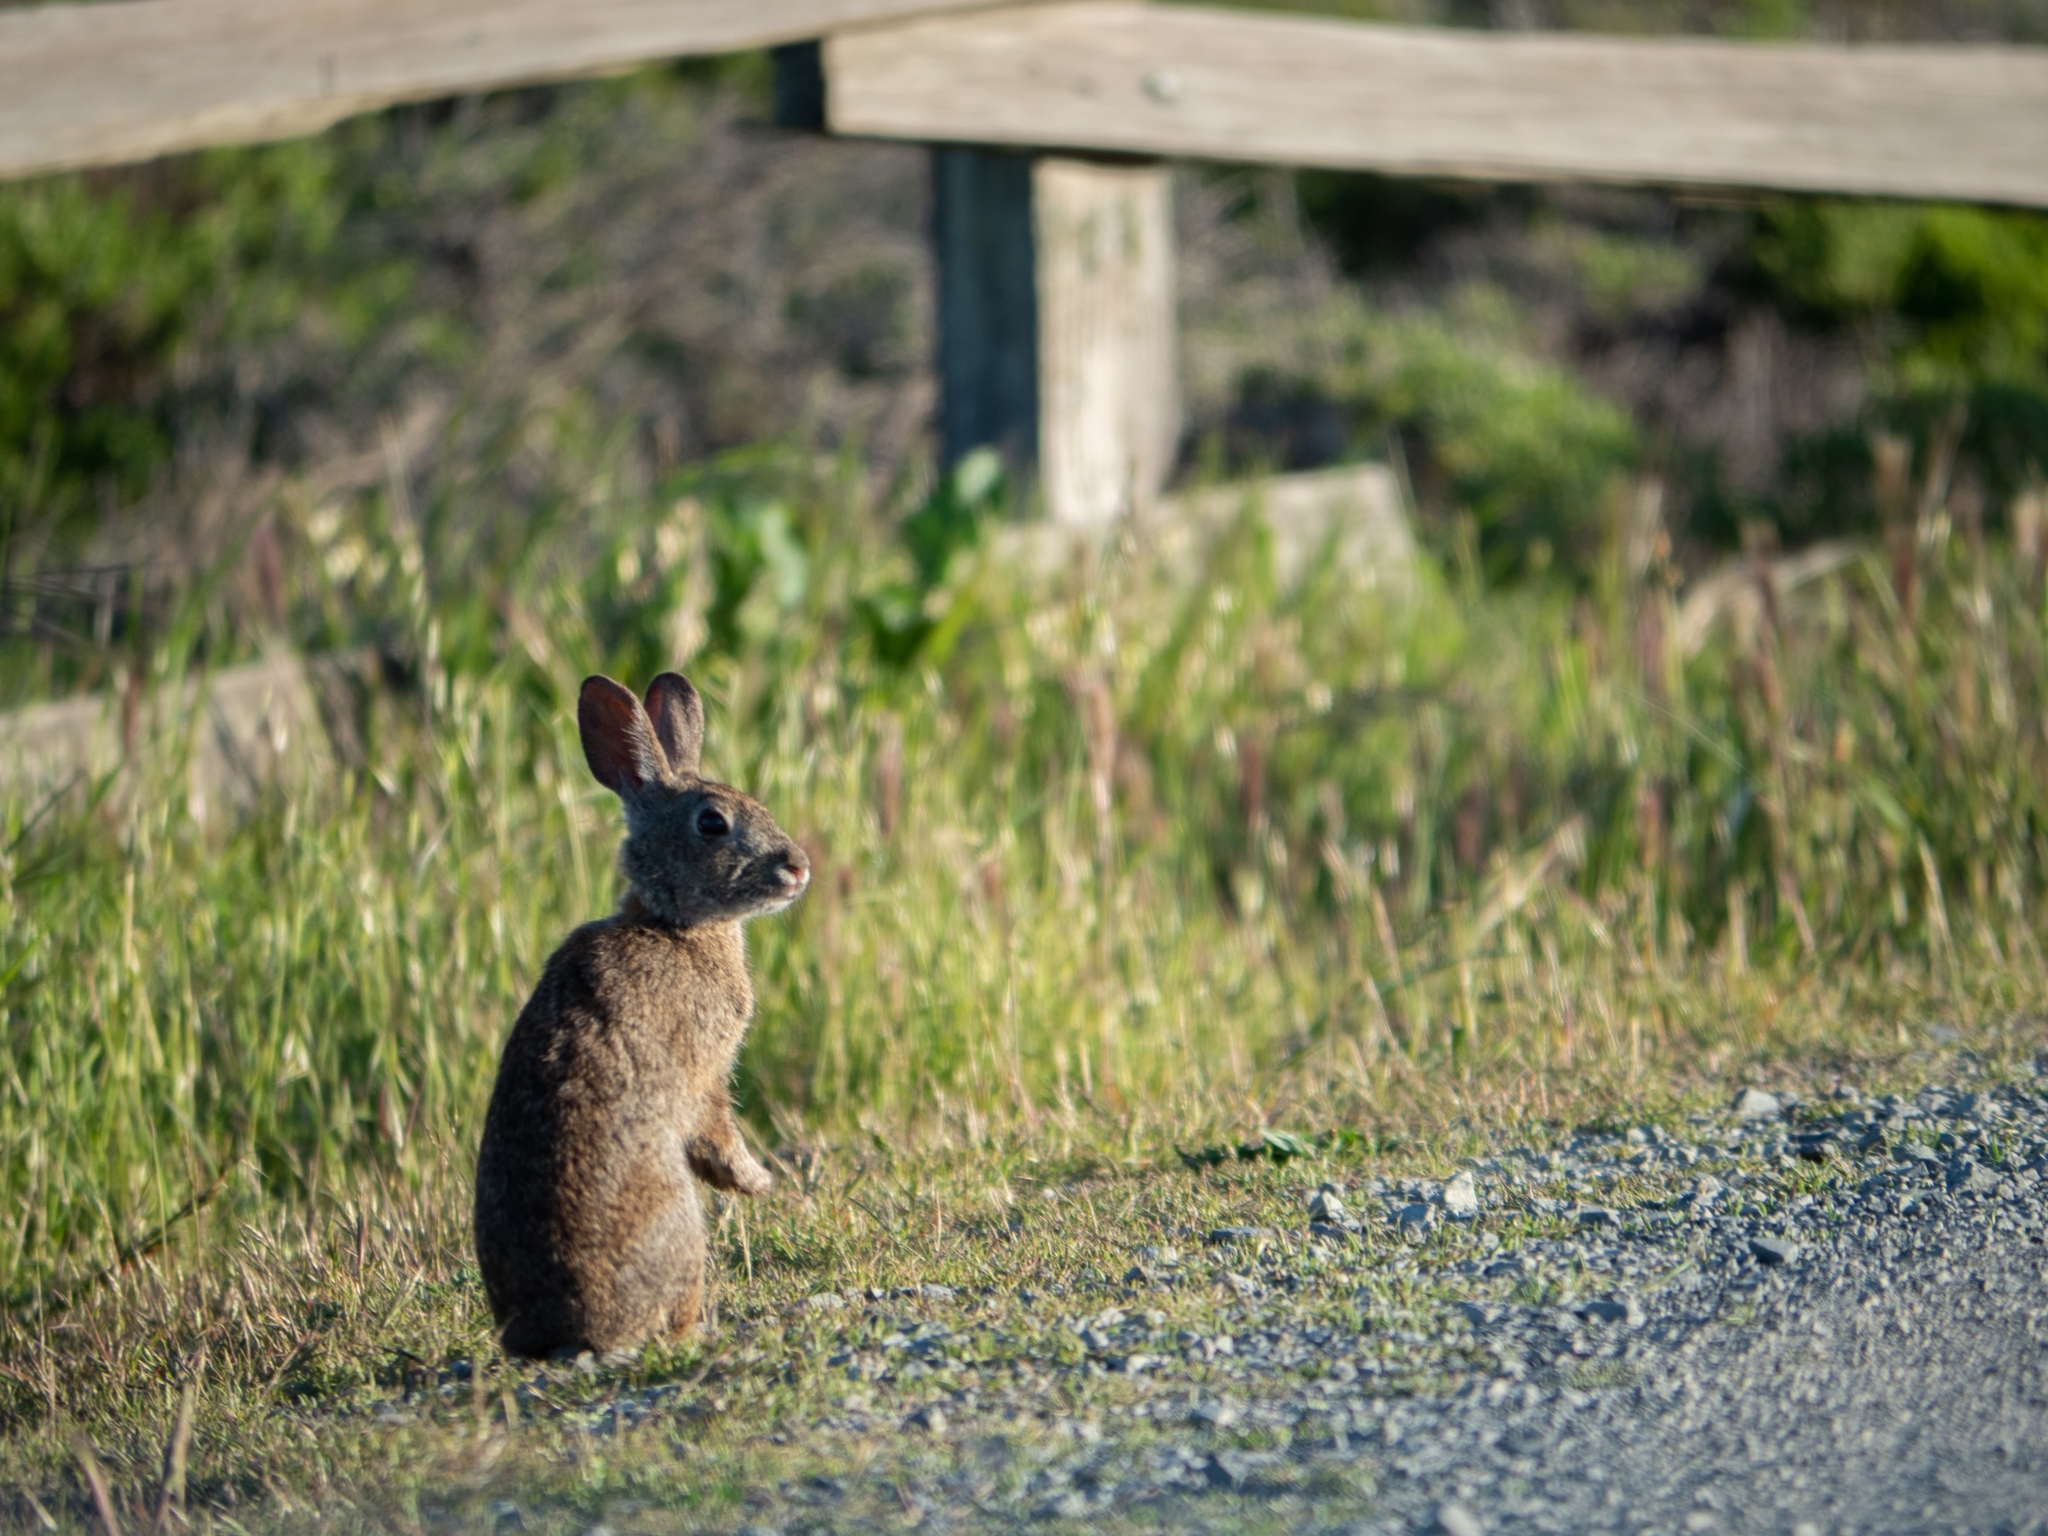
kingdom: Animalia
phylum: Chordata
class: Mammalia
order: Lagomorpha
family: Leporidae
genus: Sylvilagus
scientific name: Sylvilagus bachmani
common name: Brush rabbit
